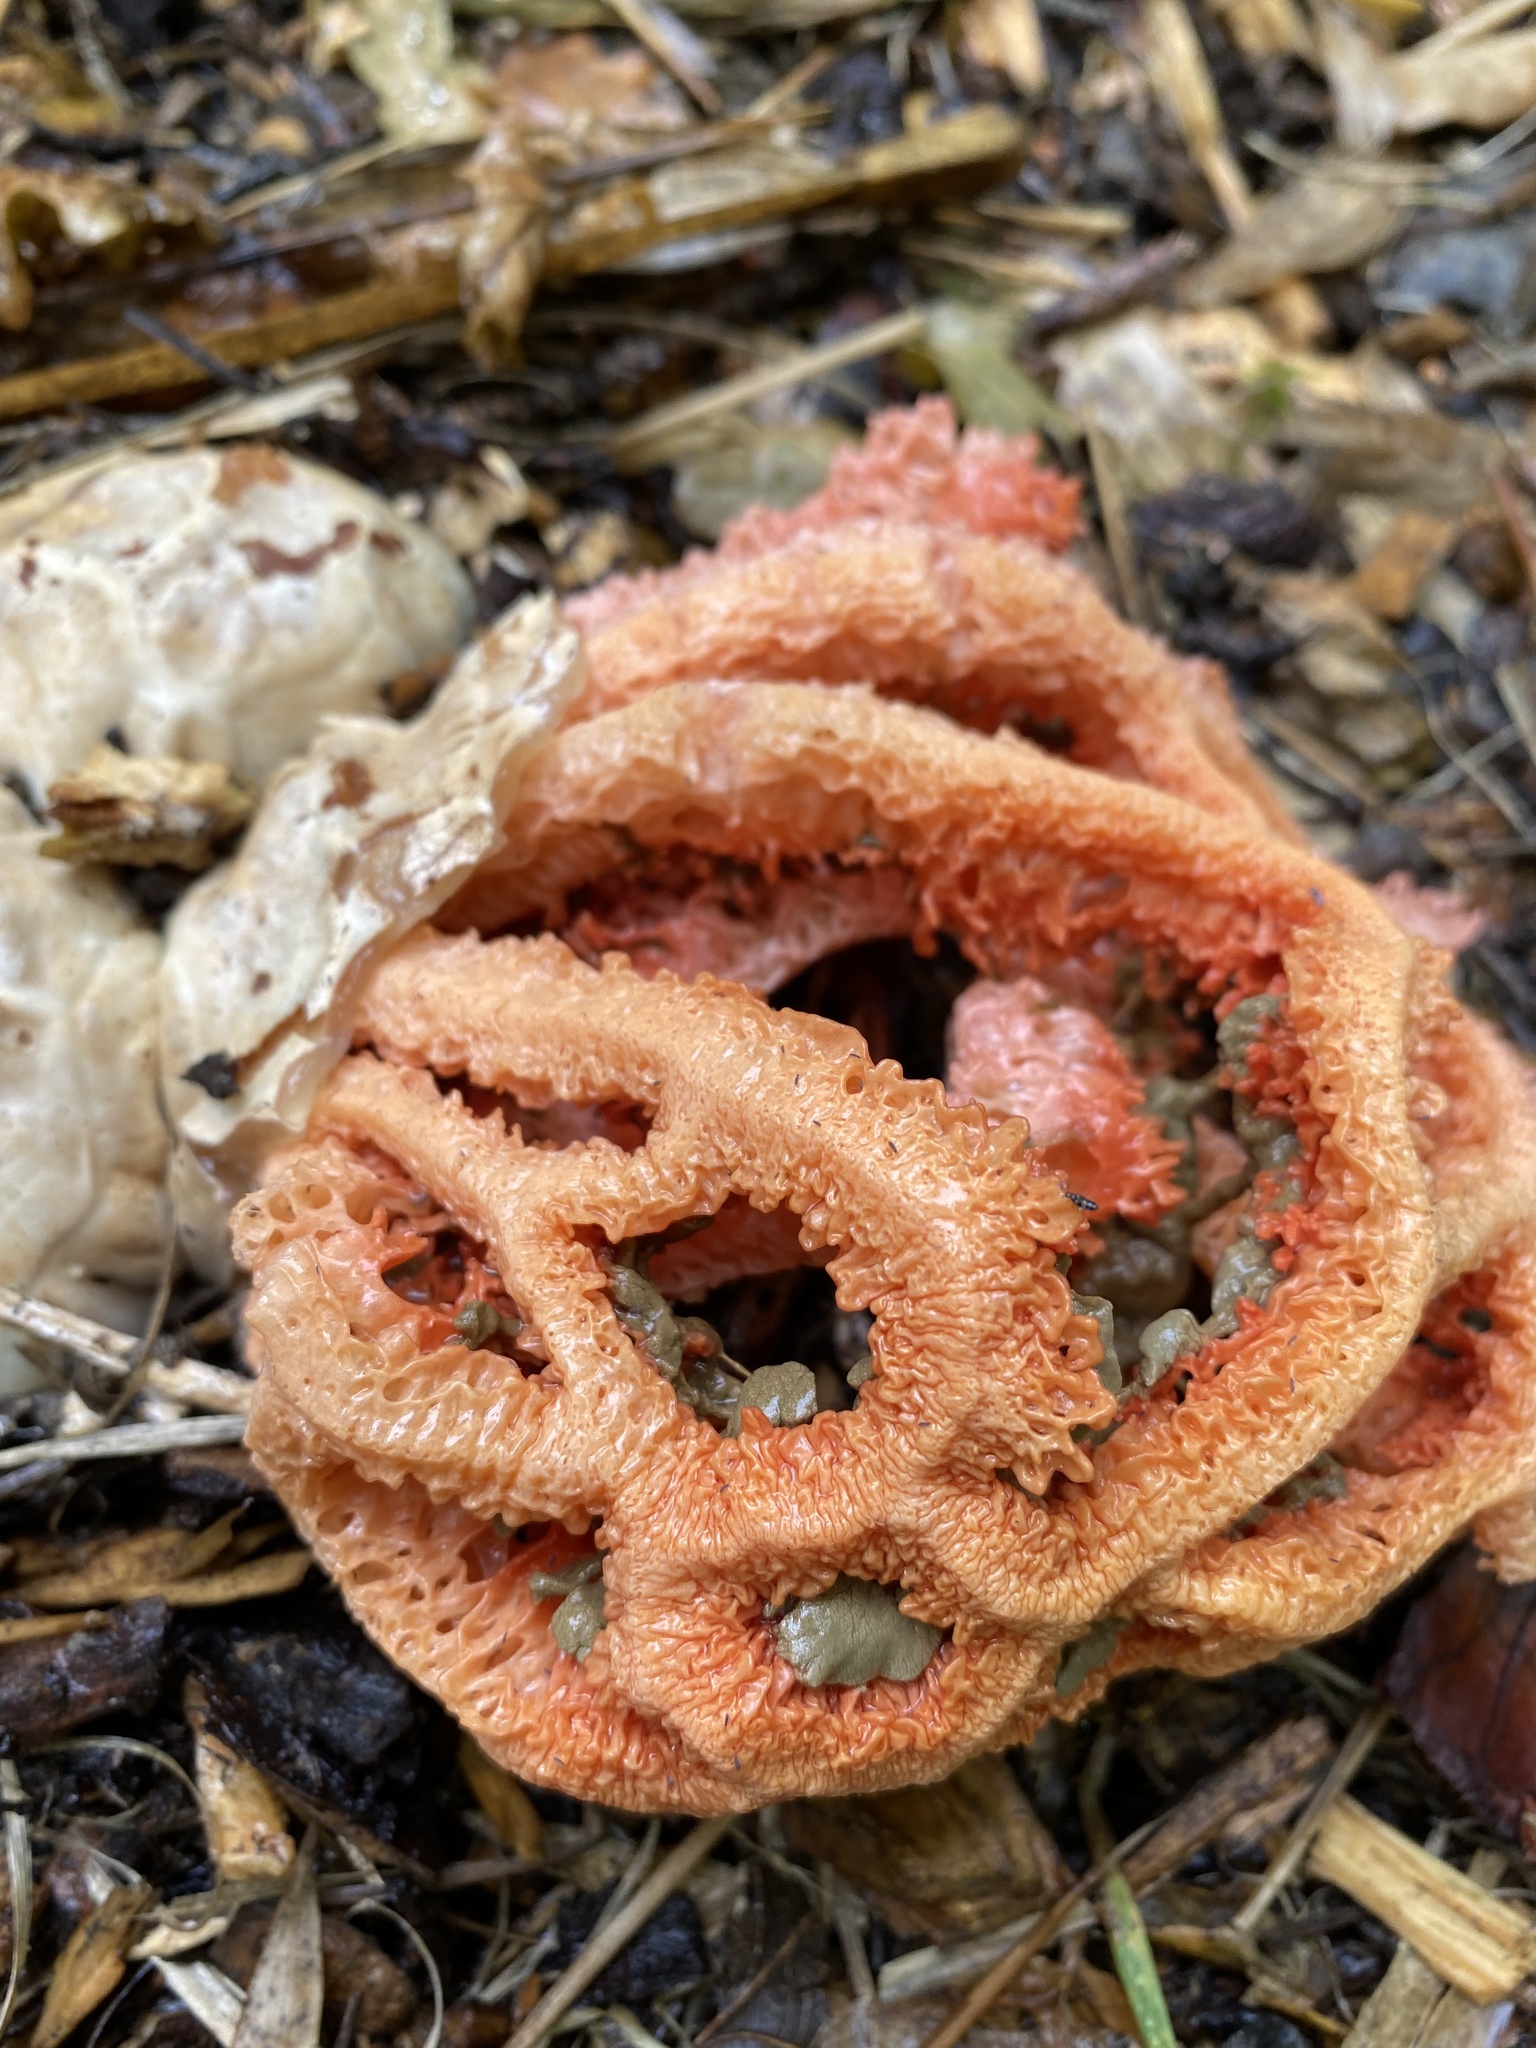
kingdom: Fungi
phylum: Basidiomycota
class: Agaricomycetes
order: Phallales
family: Phallaceae
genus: Clathrus
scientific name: Clathrus ruber
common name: Red cage
